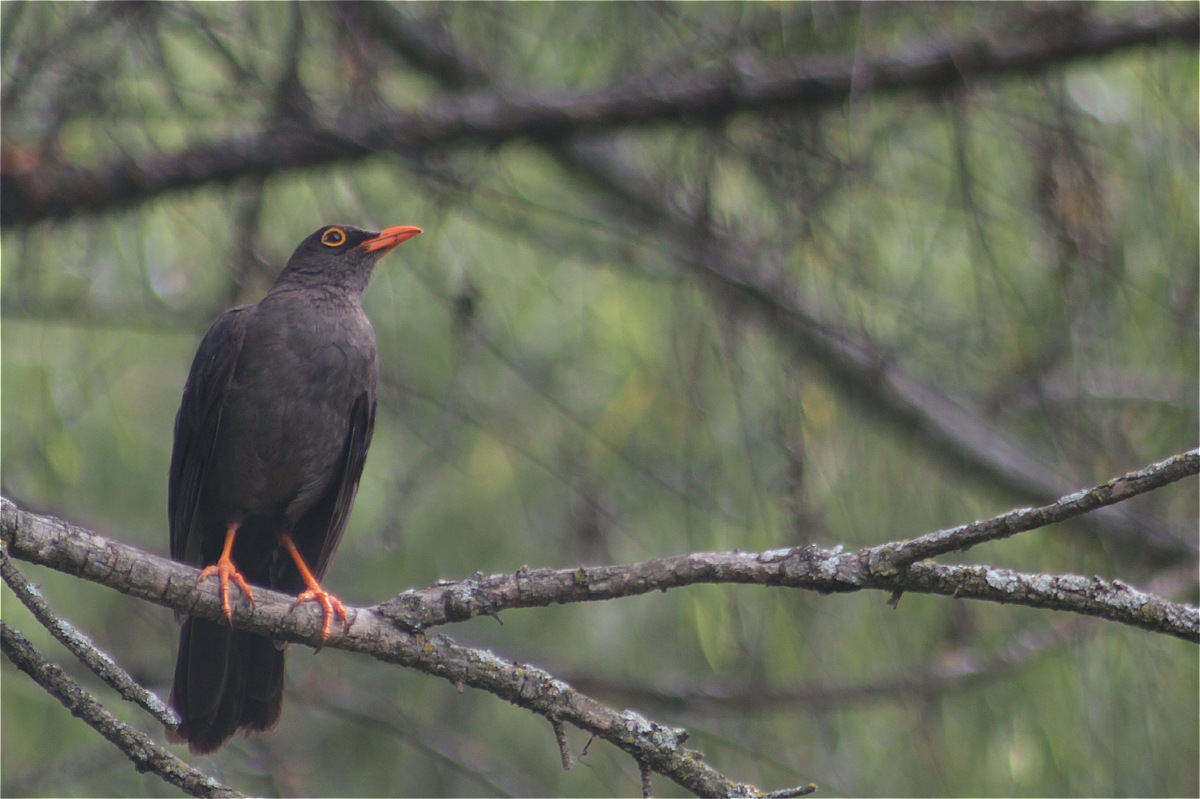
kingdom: Animalia
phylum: Chordata
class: Aves
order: Passeriformes
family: Turdidae
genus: Turdus
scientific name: Turdus fuscater
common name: Great thrush
